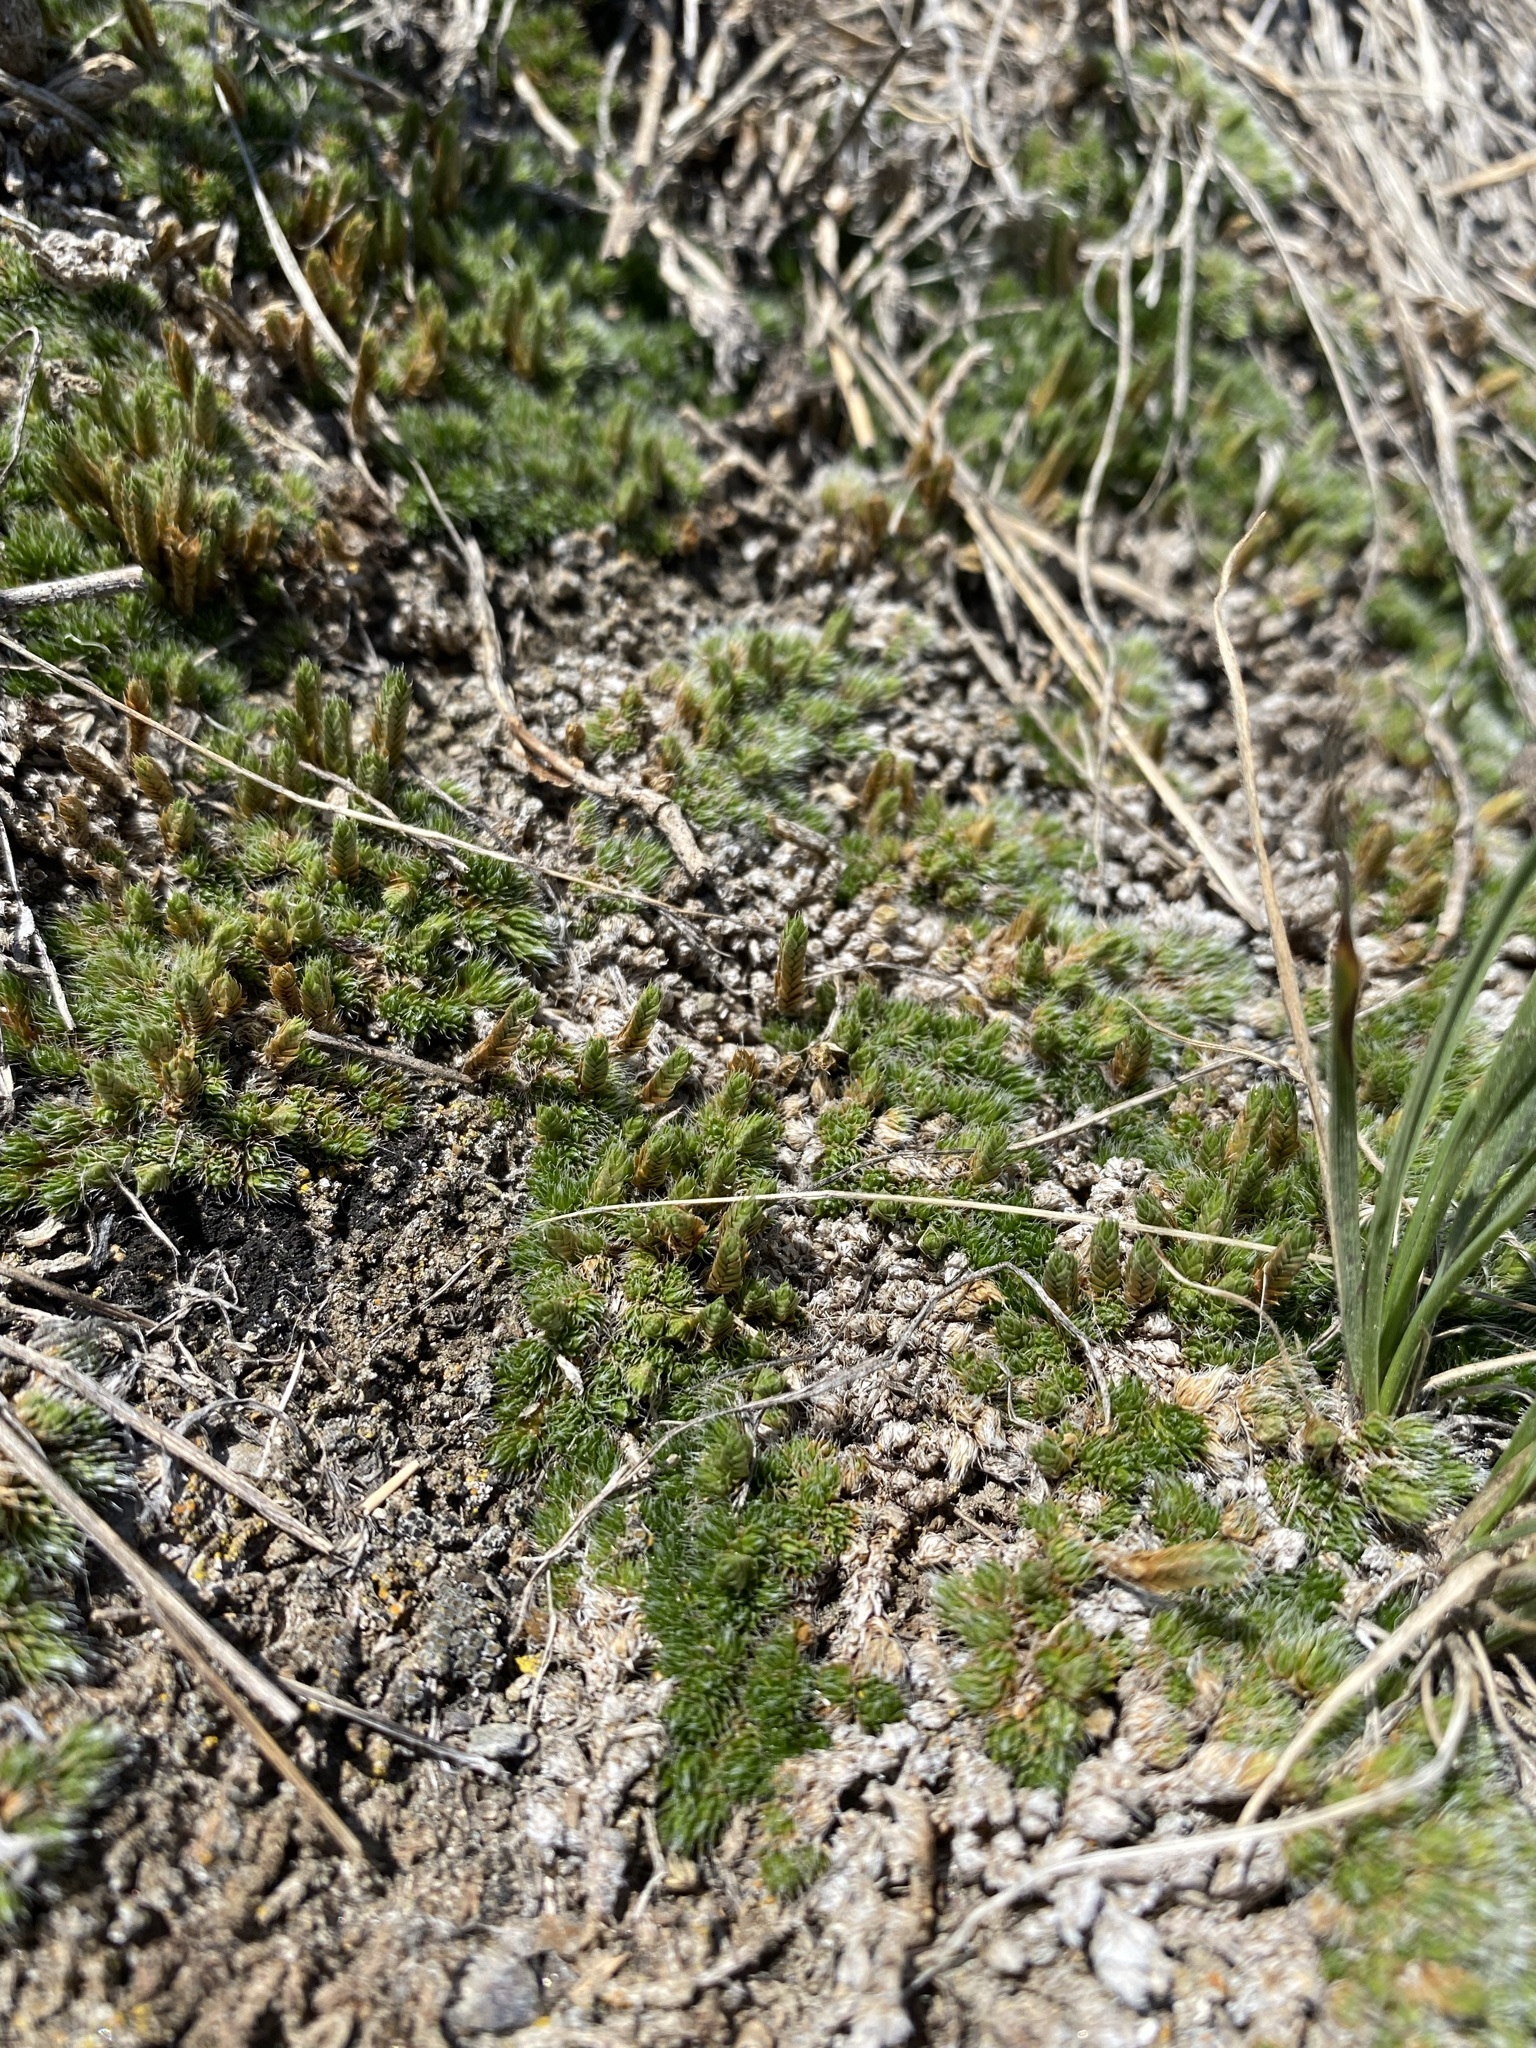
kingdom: Plantae
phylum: Tracheophyta
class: Lycopodiopsida
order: Selaginellales
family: Selaginellaceae
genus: Selaginella
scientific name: Selaginella densa
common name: Mountain spike-moss
